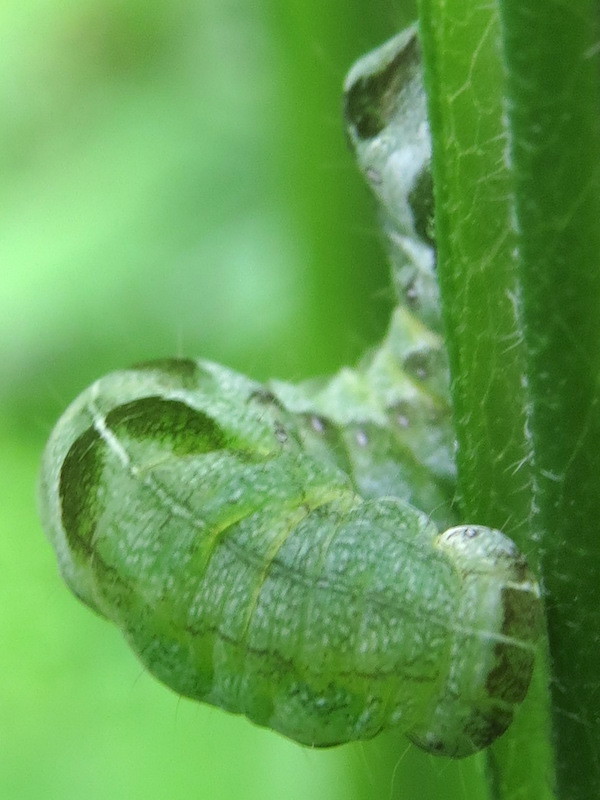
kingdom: Animalia
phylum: Arthropoda
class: Insecta
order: Lepidoptera
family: Noctuidae
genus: Melanchra
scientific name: Melanchra adjuncta
